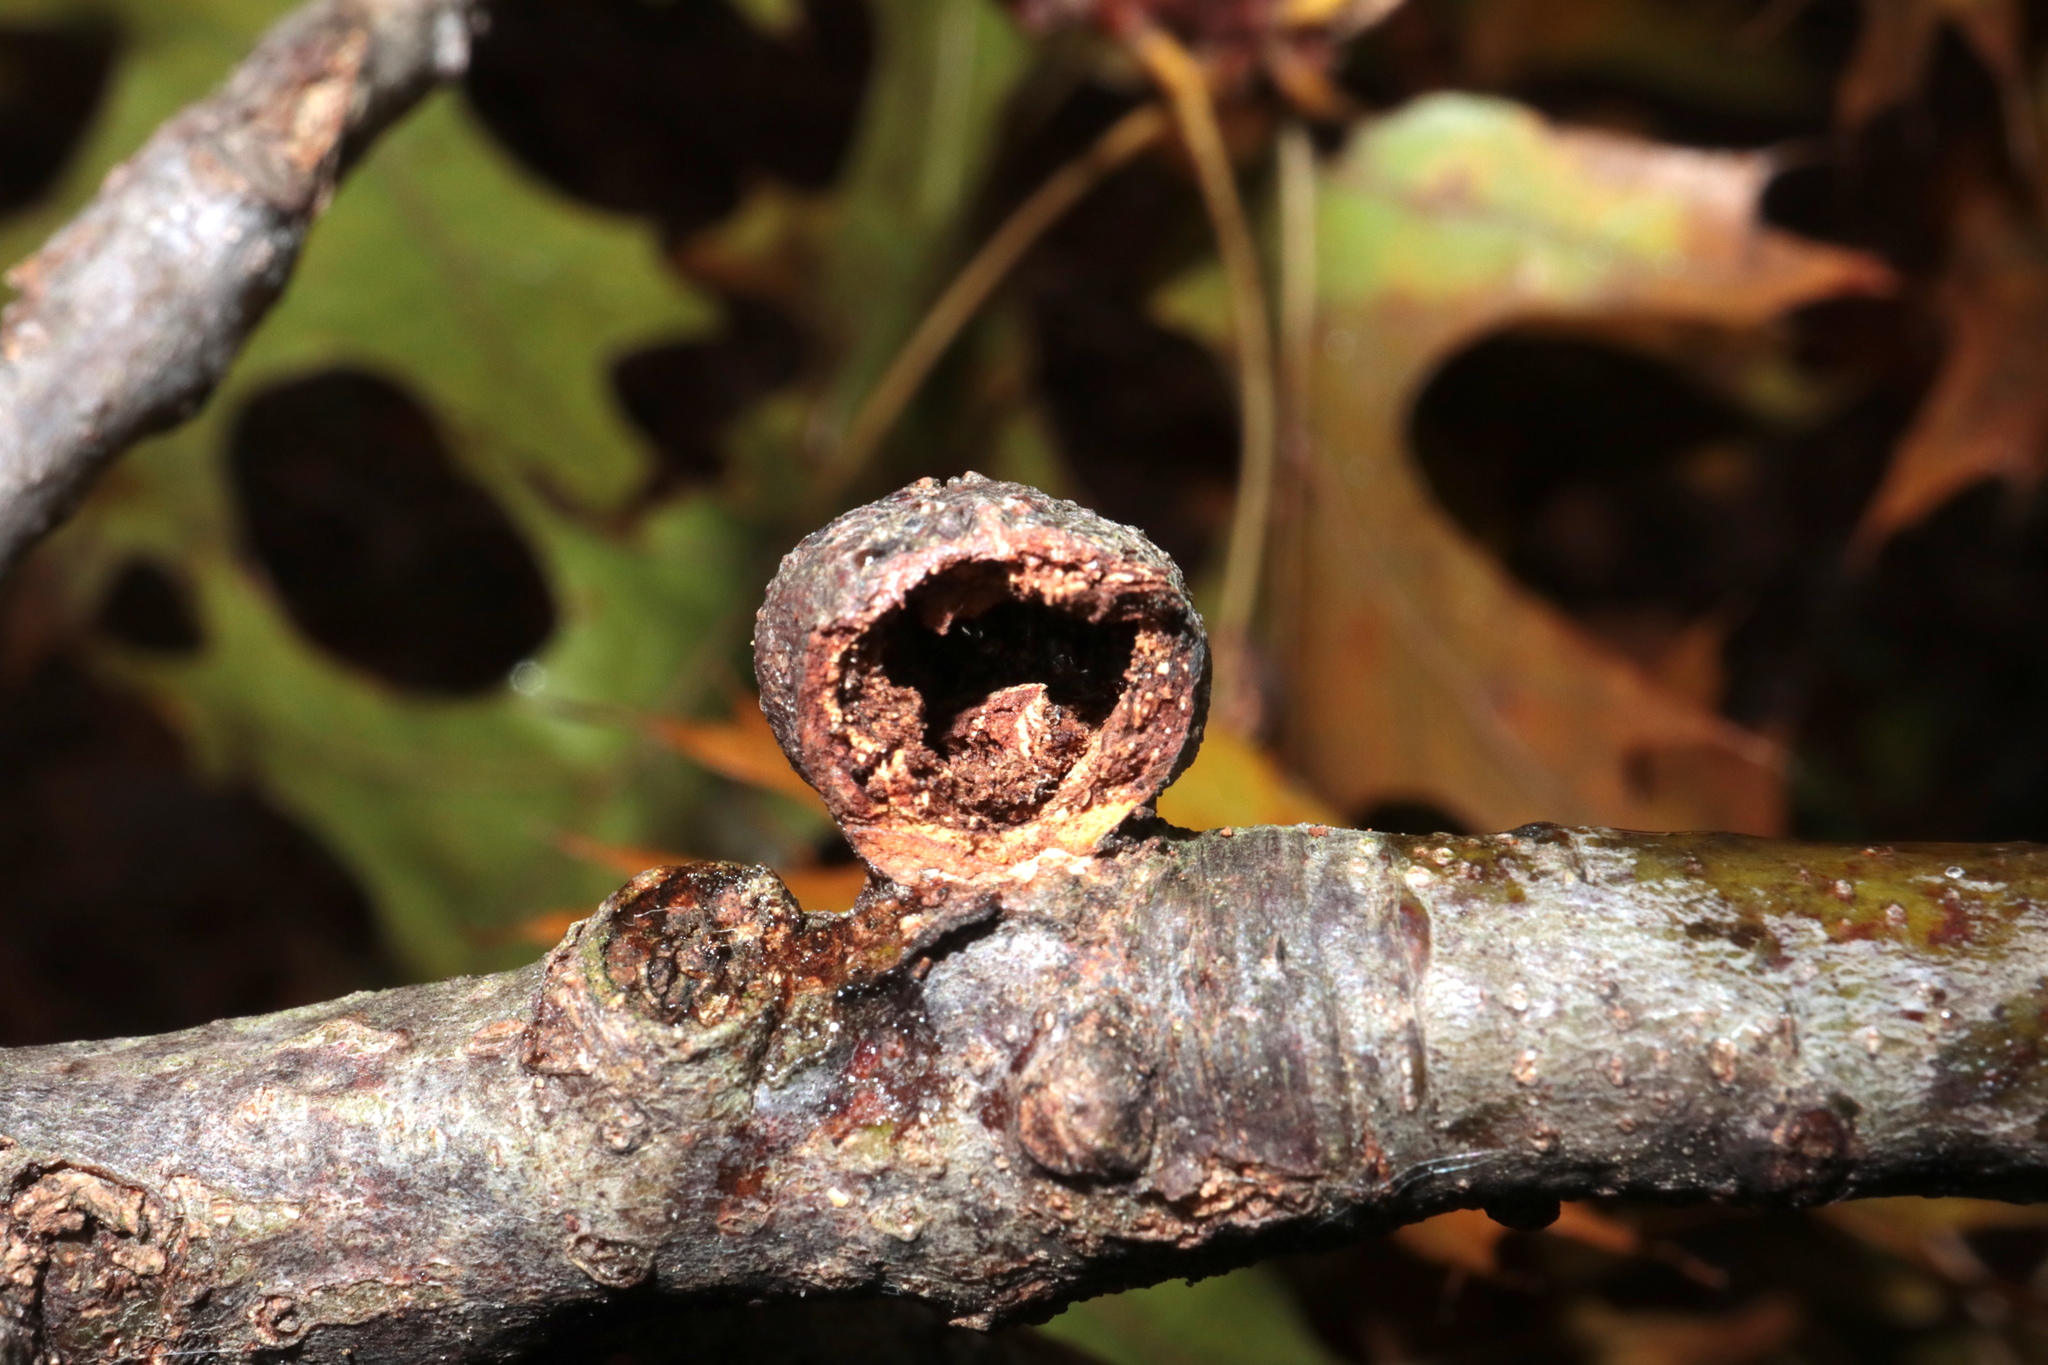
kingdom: Animalia
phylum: Arthropoda
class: Insecta
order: Hymenoptera
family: Cynipidae
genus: Synergus
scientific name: Synergus lignicola
